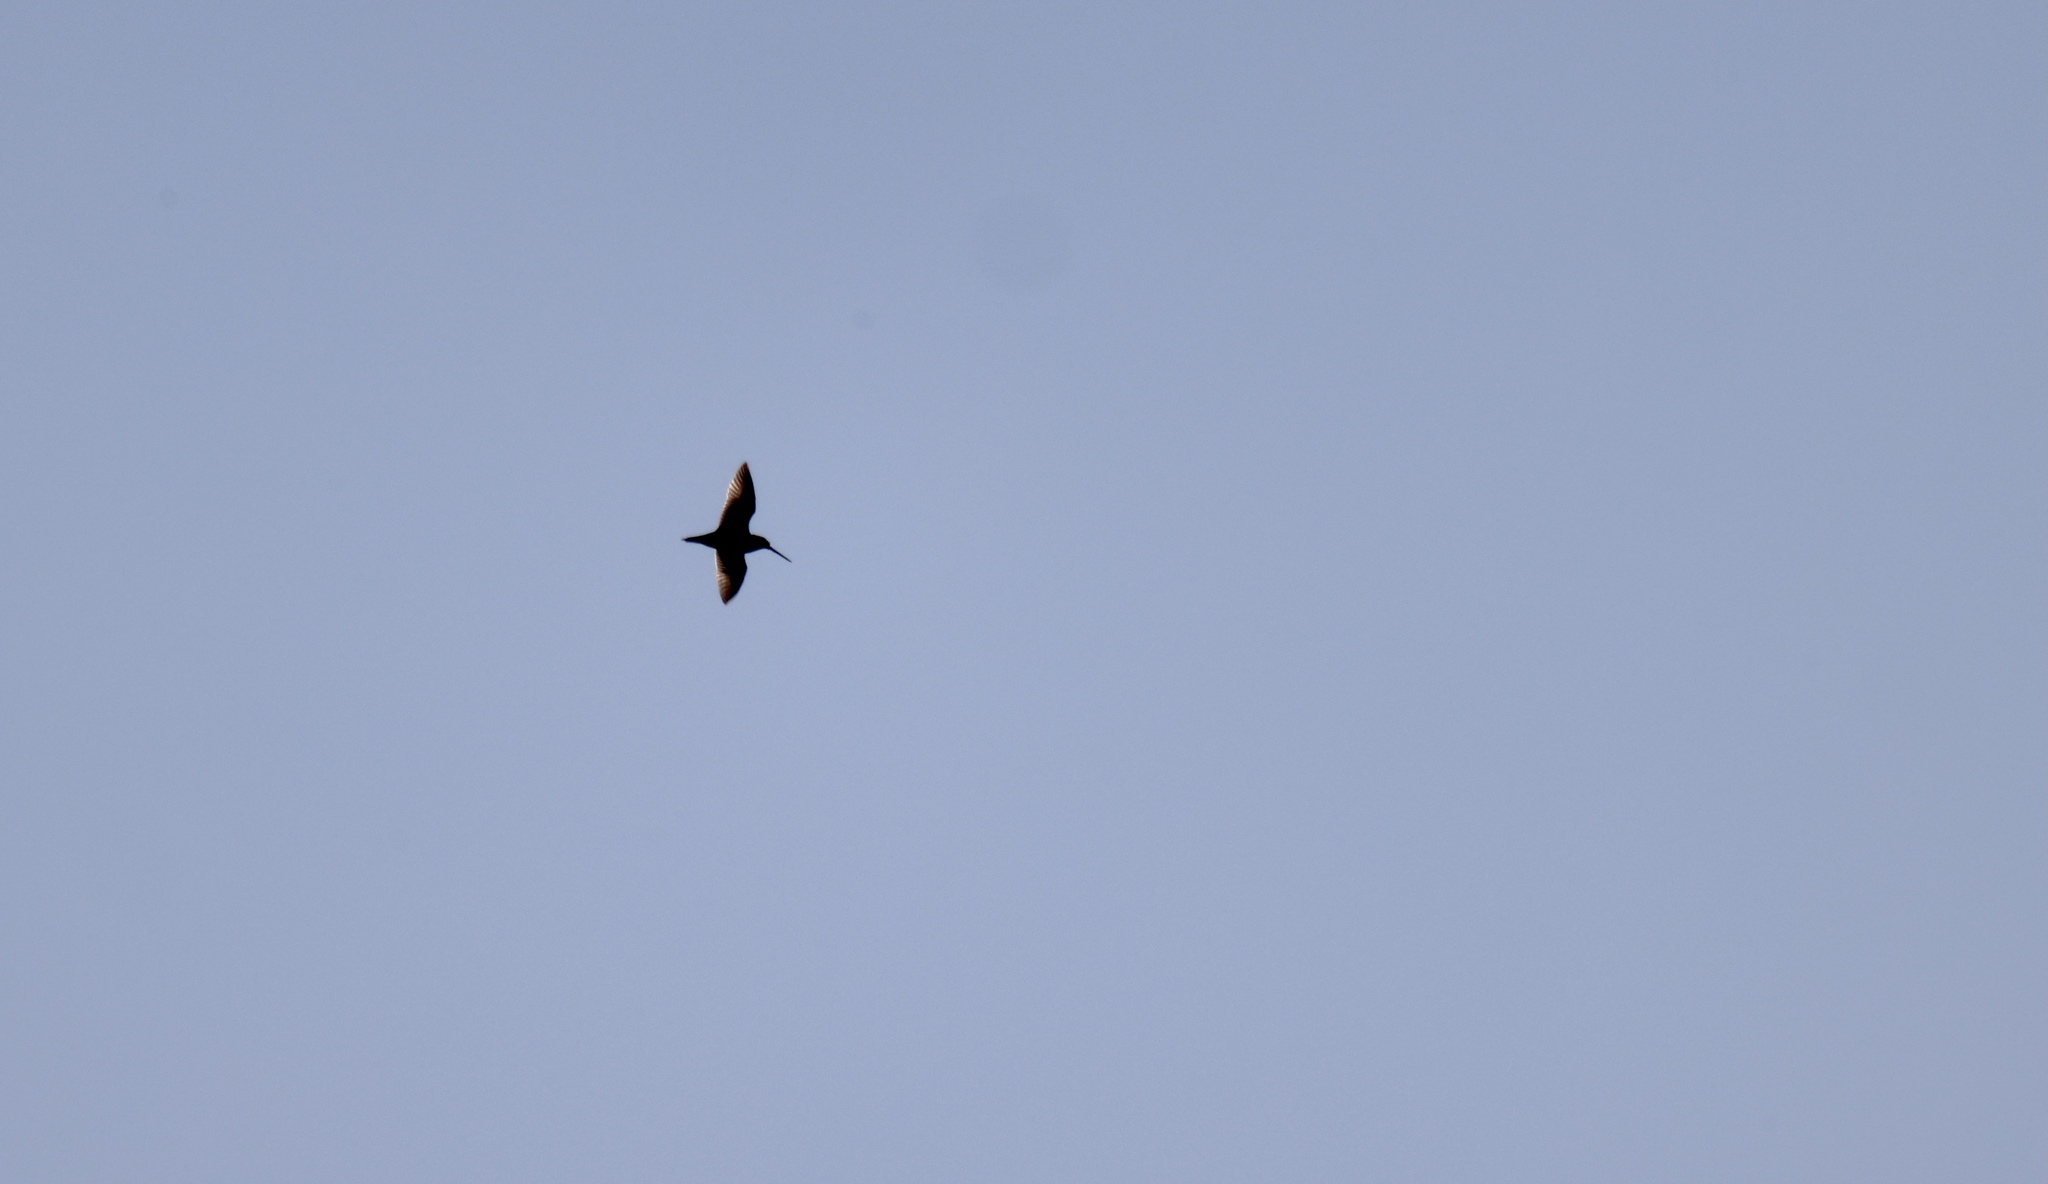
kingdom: Animalia
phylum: Chordata
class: Aves
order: Charadriiformes
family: Scolopacidae
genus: Gallinago
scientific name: Gallinago delicata
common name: Wilson's snipe
